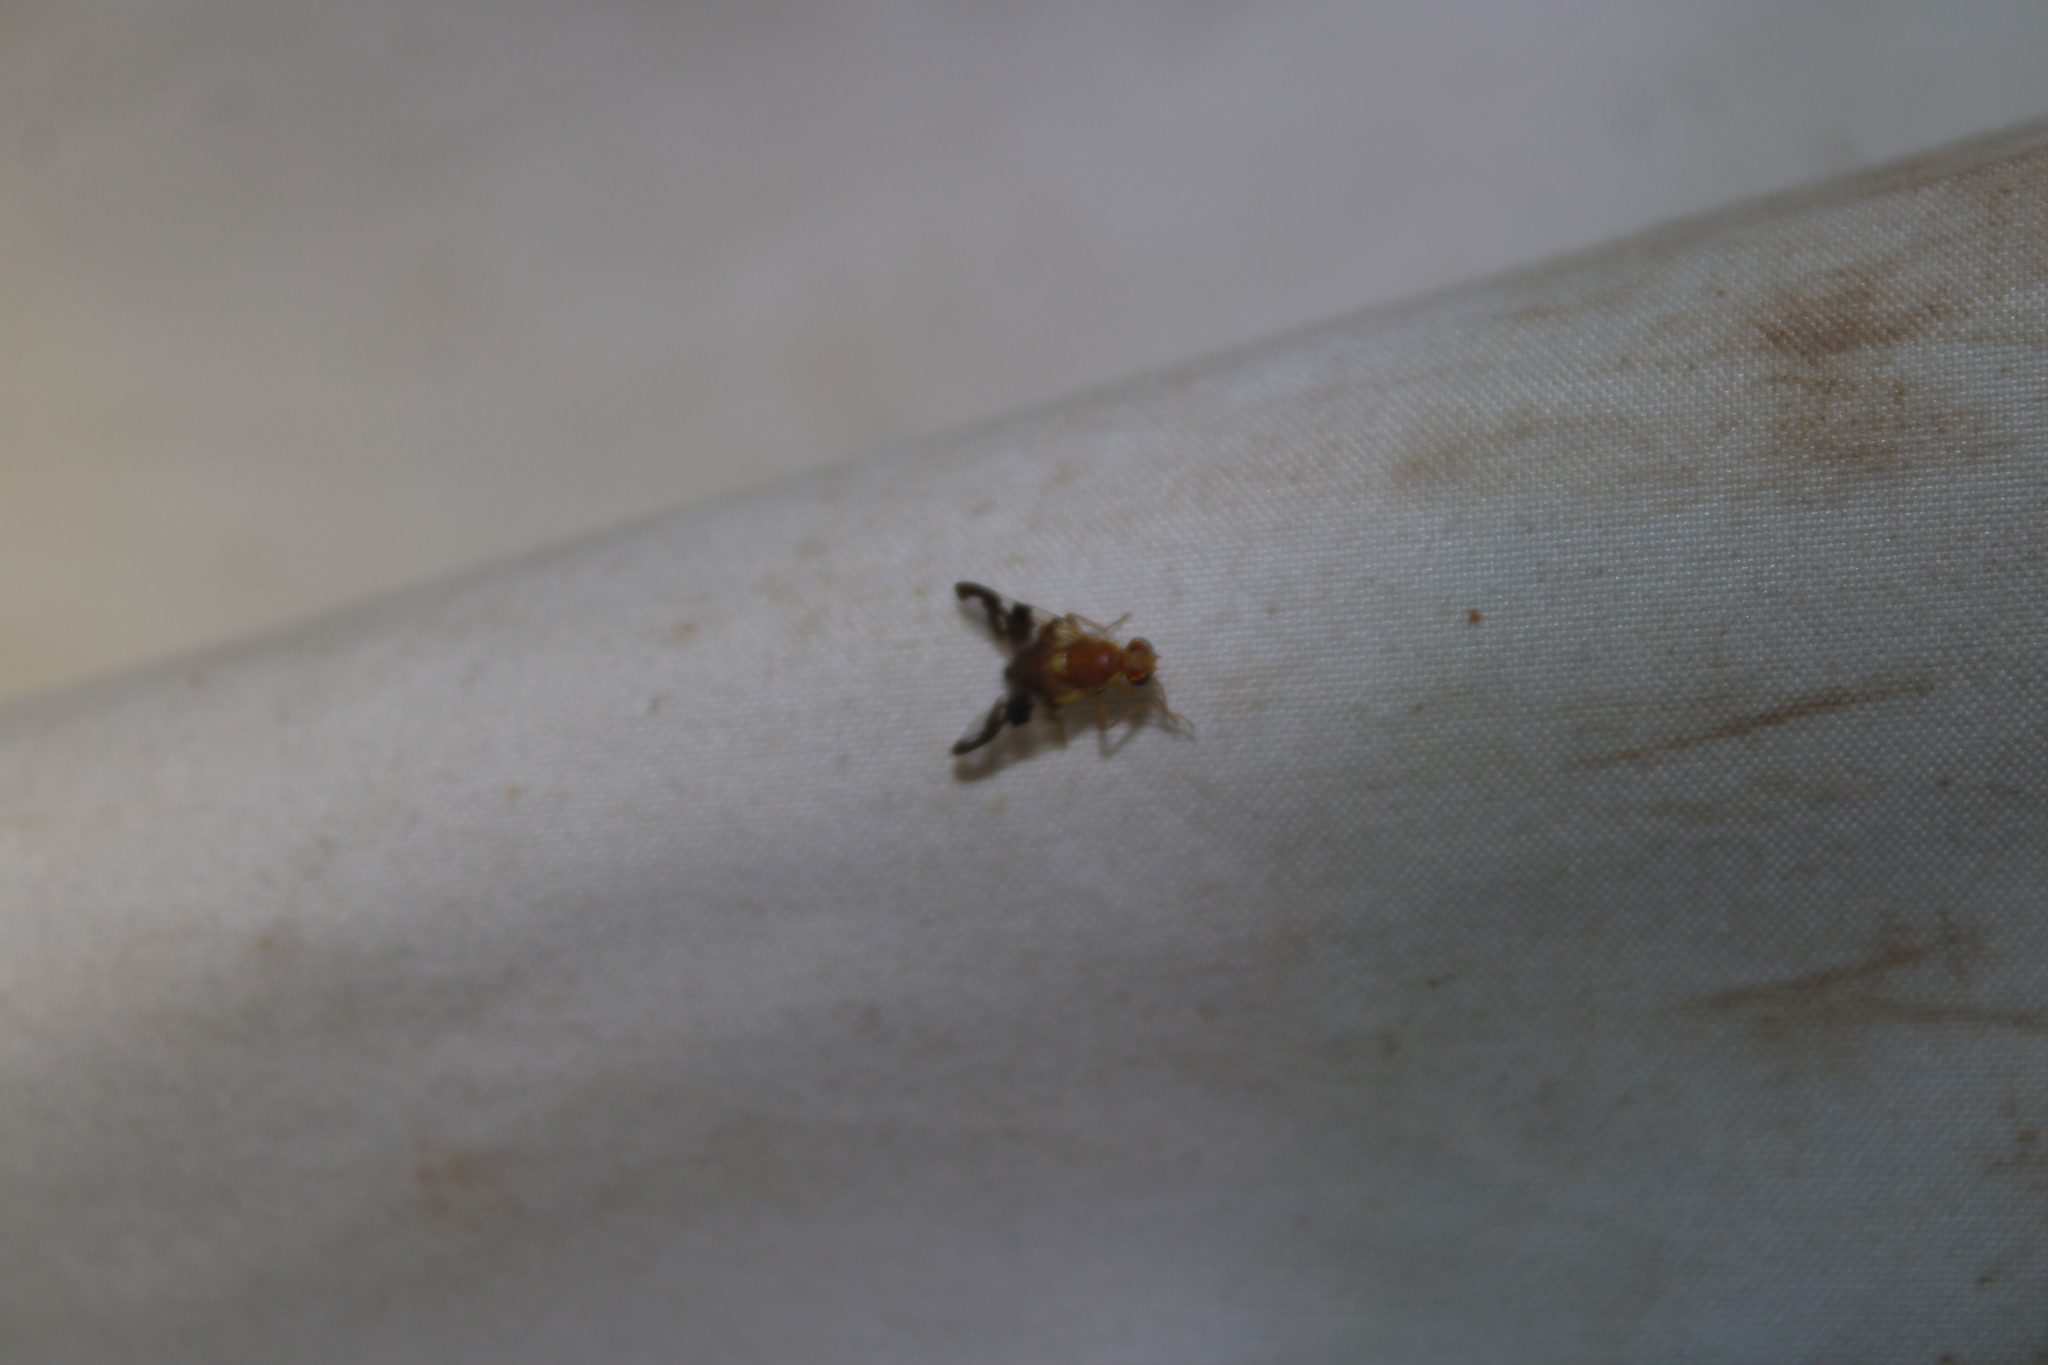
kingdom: Animalia
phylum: Arthropoda
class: Insecta
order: Diptera
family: Tephritidae
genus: Rhagoletis
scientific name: Rhagoletis suavis
